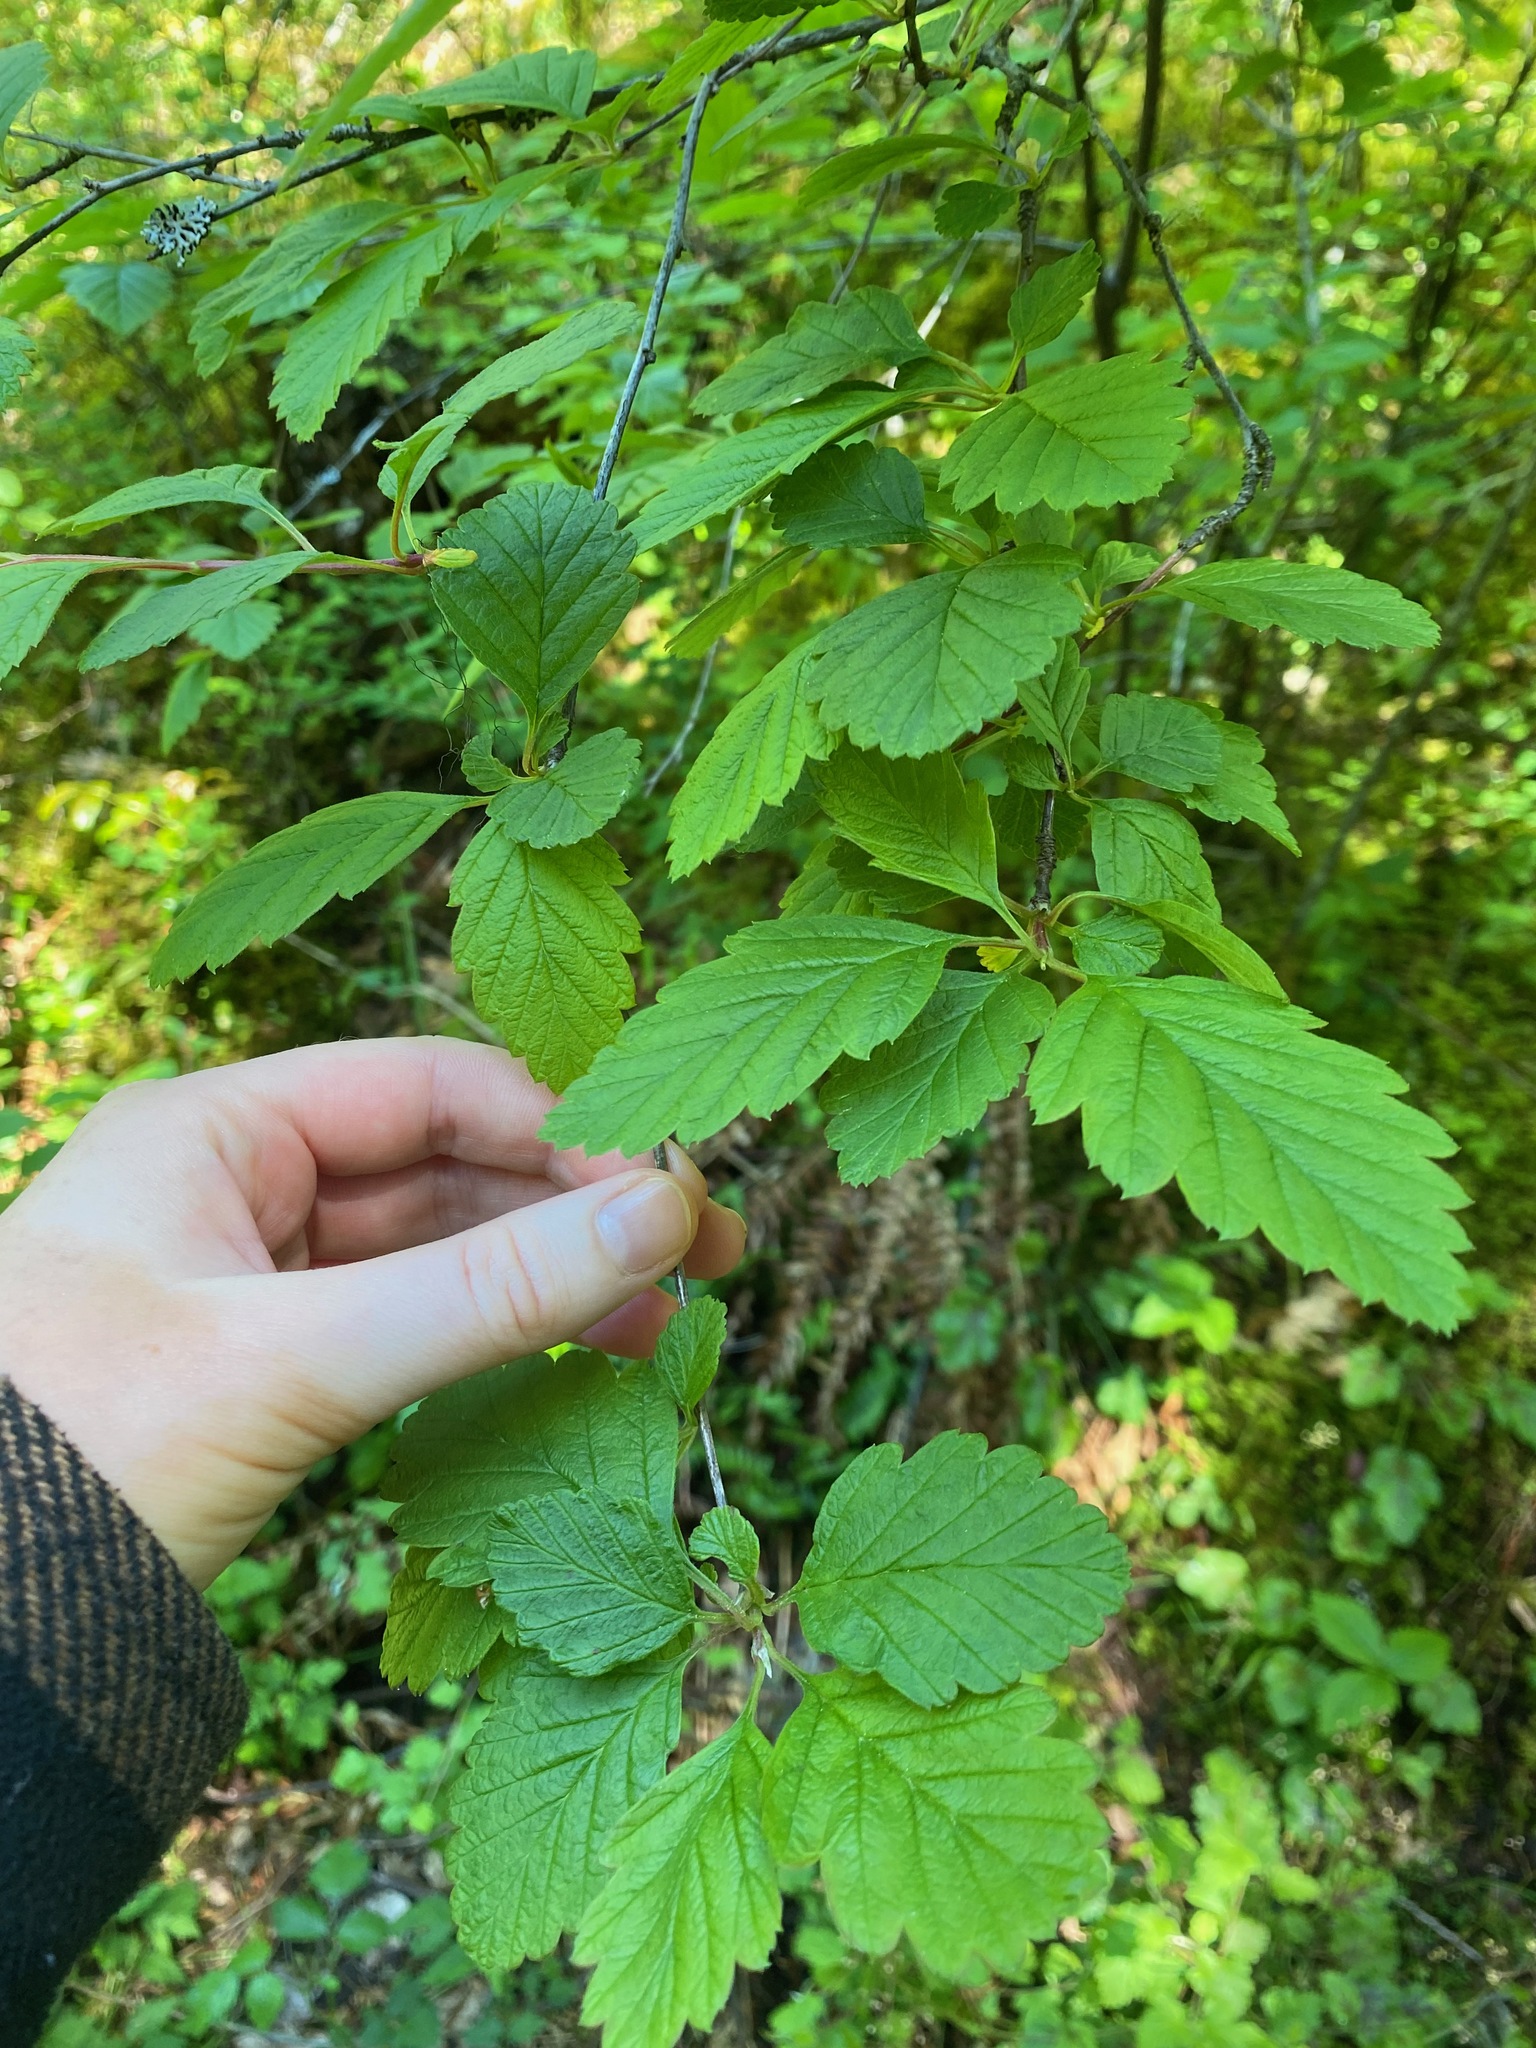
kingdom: Plantae
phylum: Tracheophyta
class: Magnoliopsida
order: Rosales
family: Rosaceae
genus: Holodiscus
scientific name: Holodiscus discolor
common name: Oceanspray
